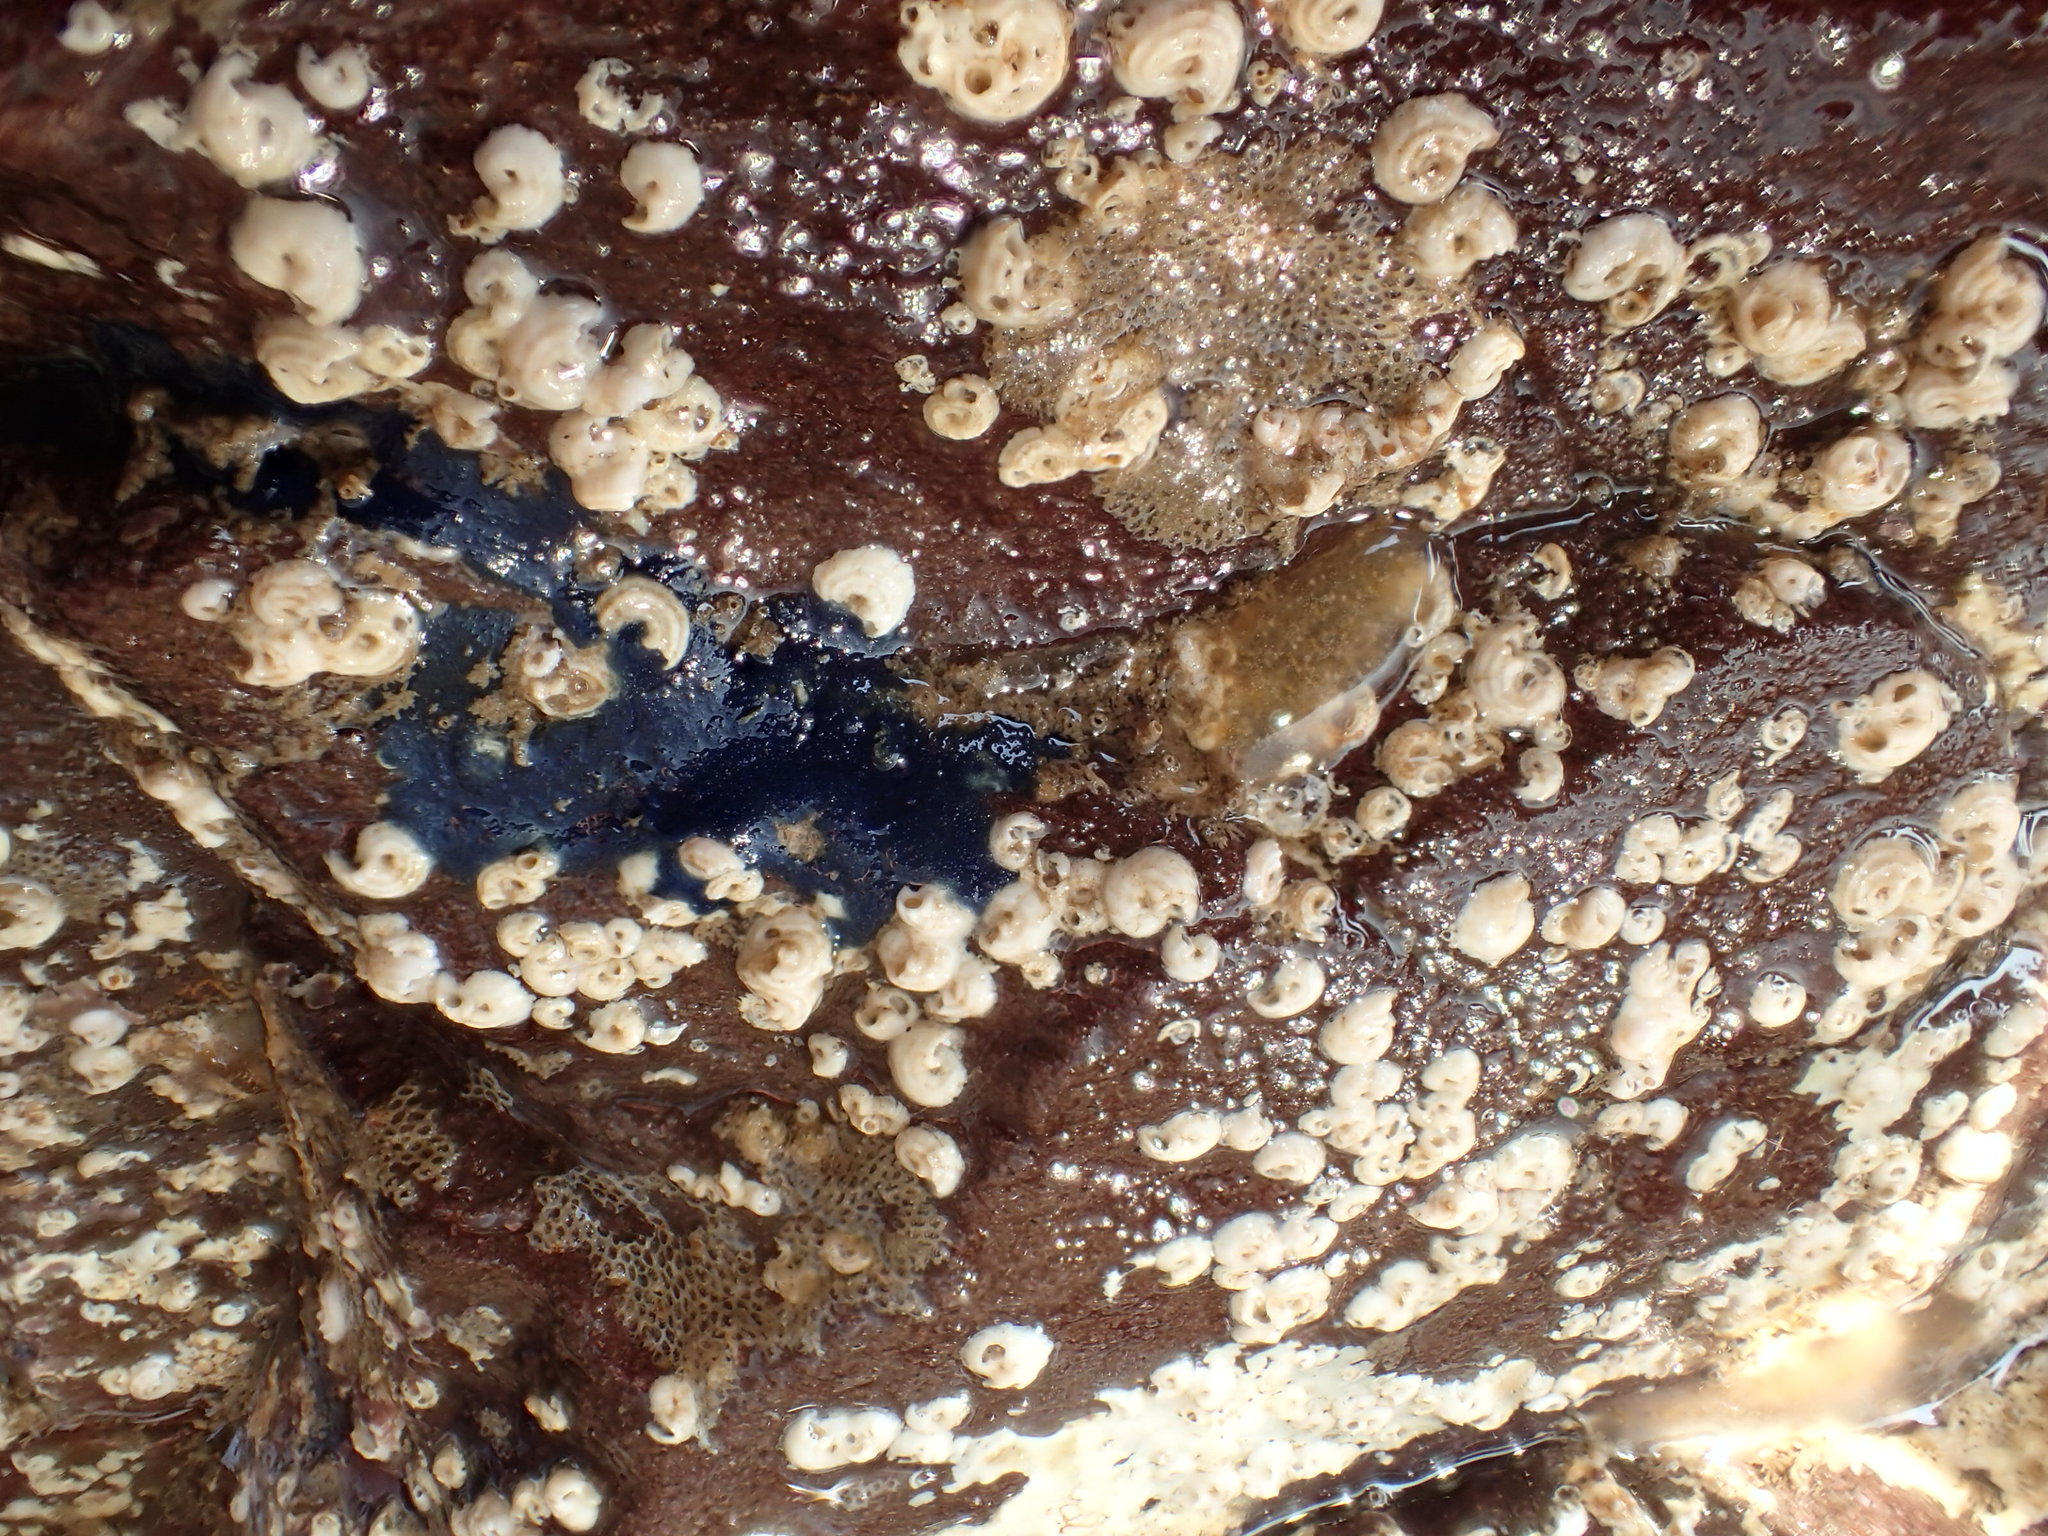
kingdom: Animalia
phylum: Porifera
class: Demospongiae
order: Suberitida
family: Suberitidae
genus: Terpios
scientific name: Terpios gelatinosus
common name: Blue encrusting sponge
